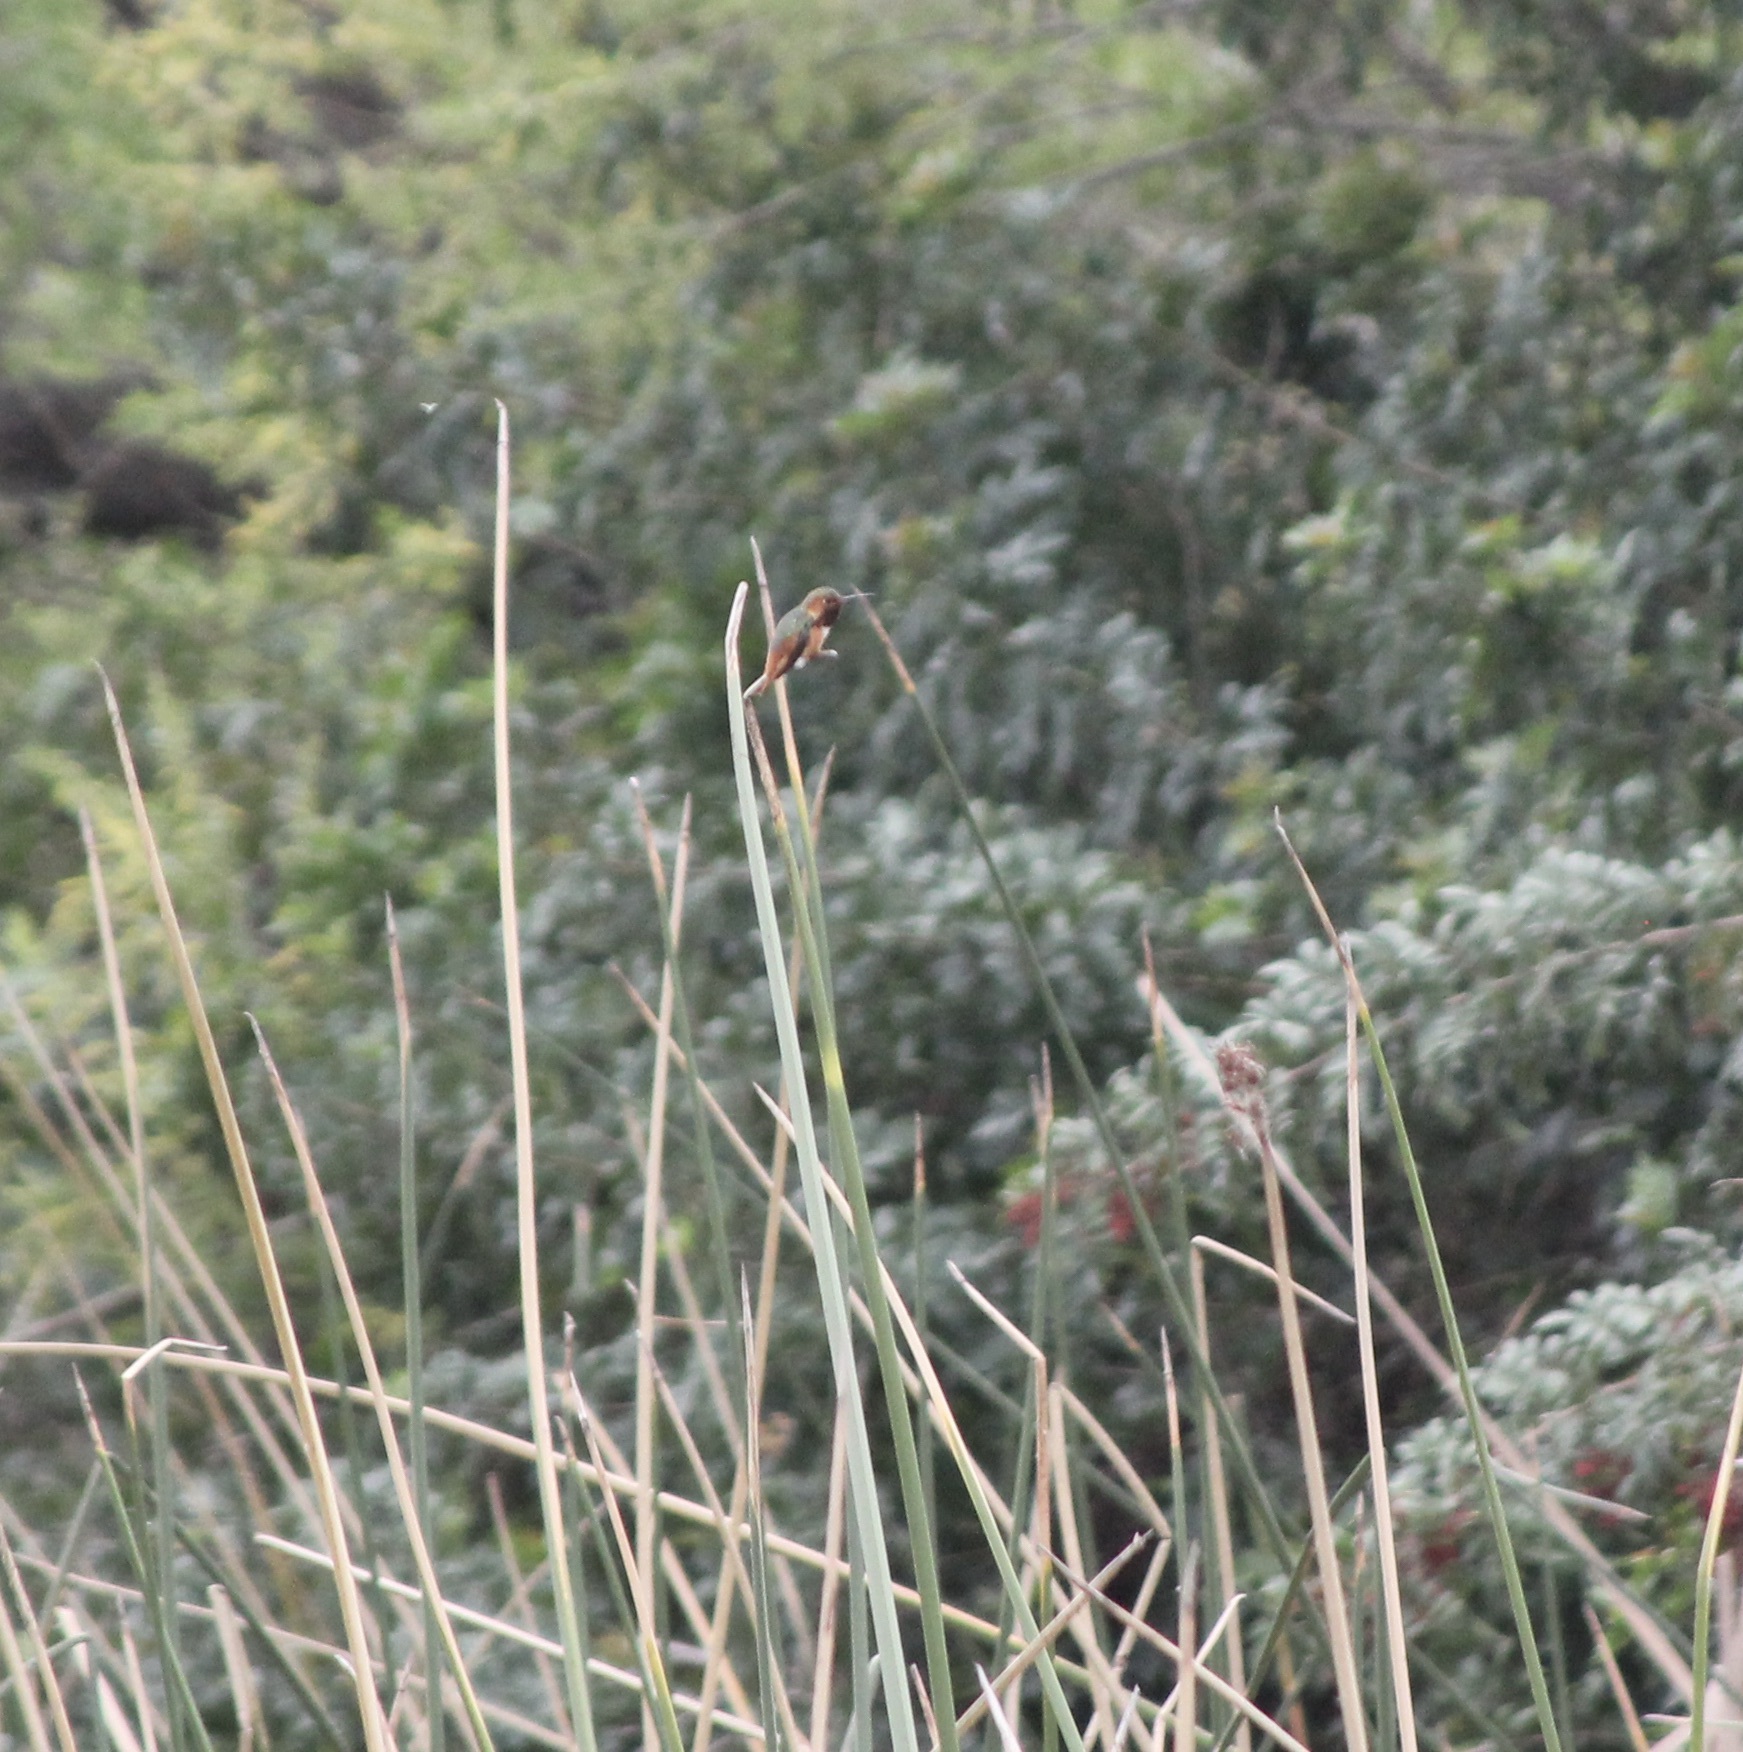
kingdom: Animalia
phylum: Chordata
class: Aves
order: Apodiformes
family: Trochilidae
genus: Selasphorus
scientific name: Selasphorus sasin
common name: Allen's hummingbird
